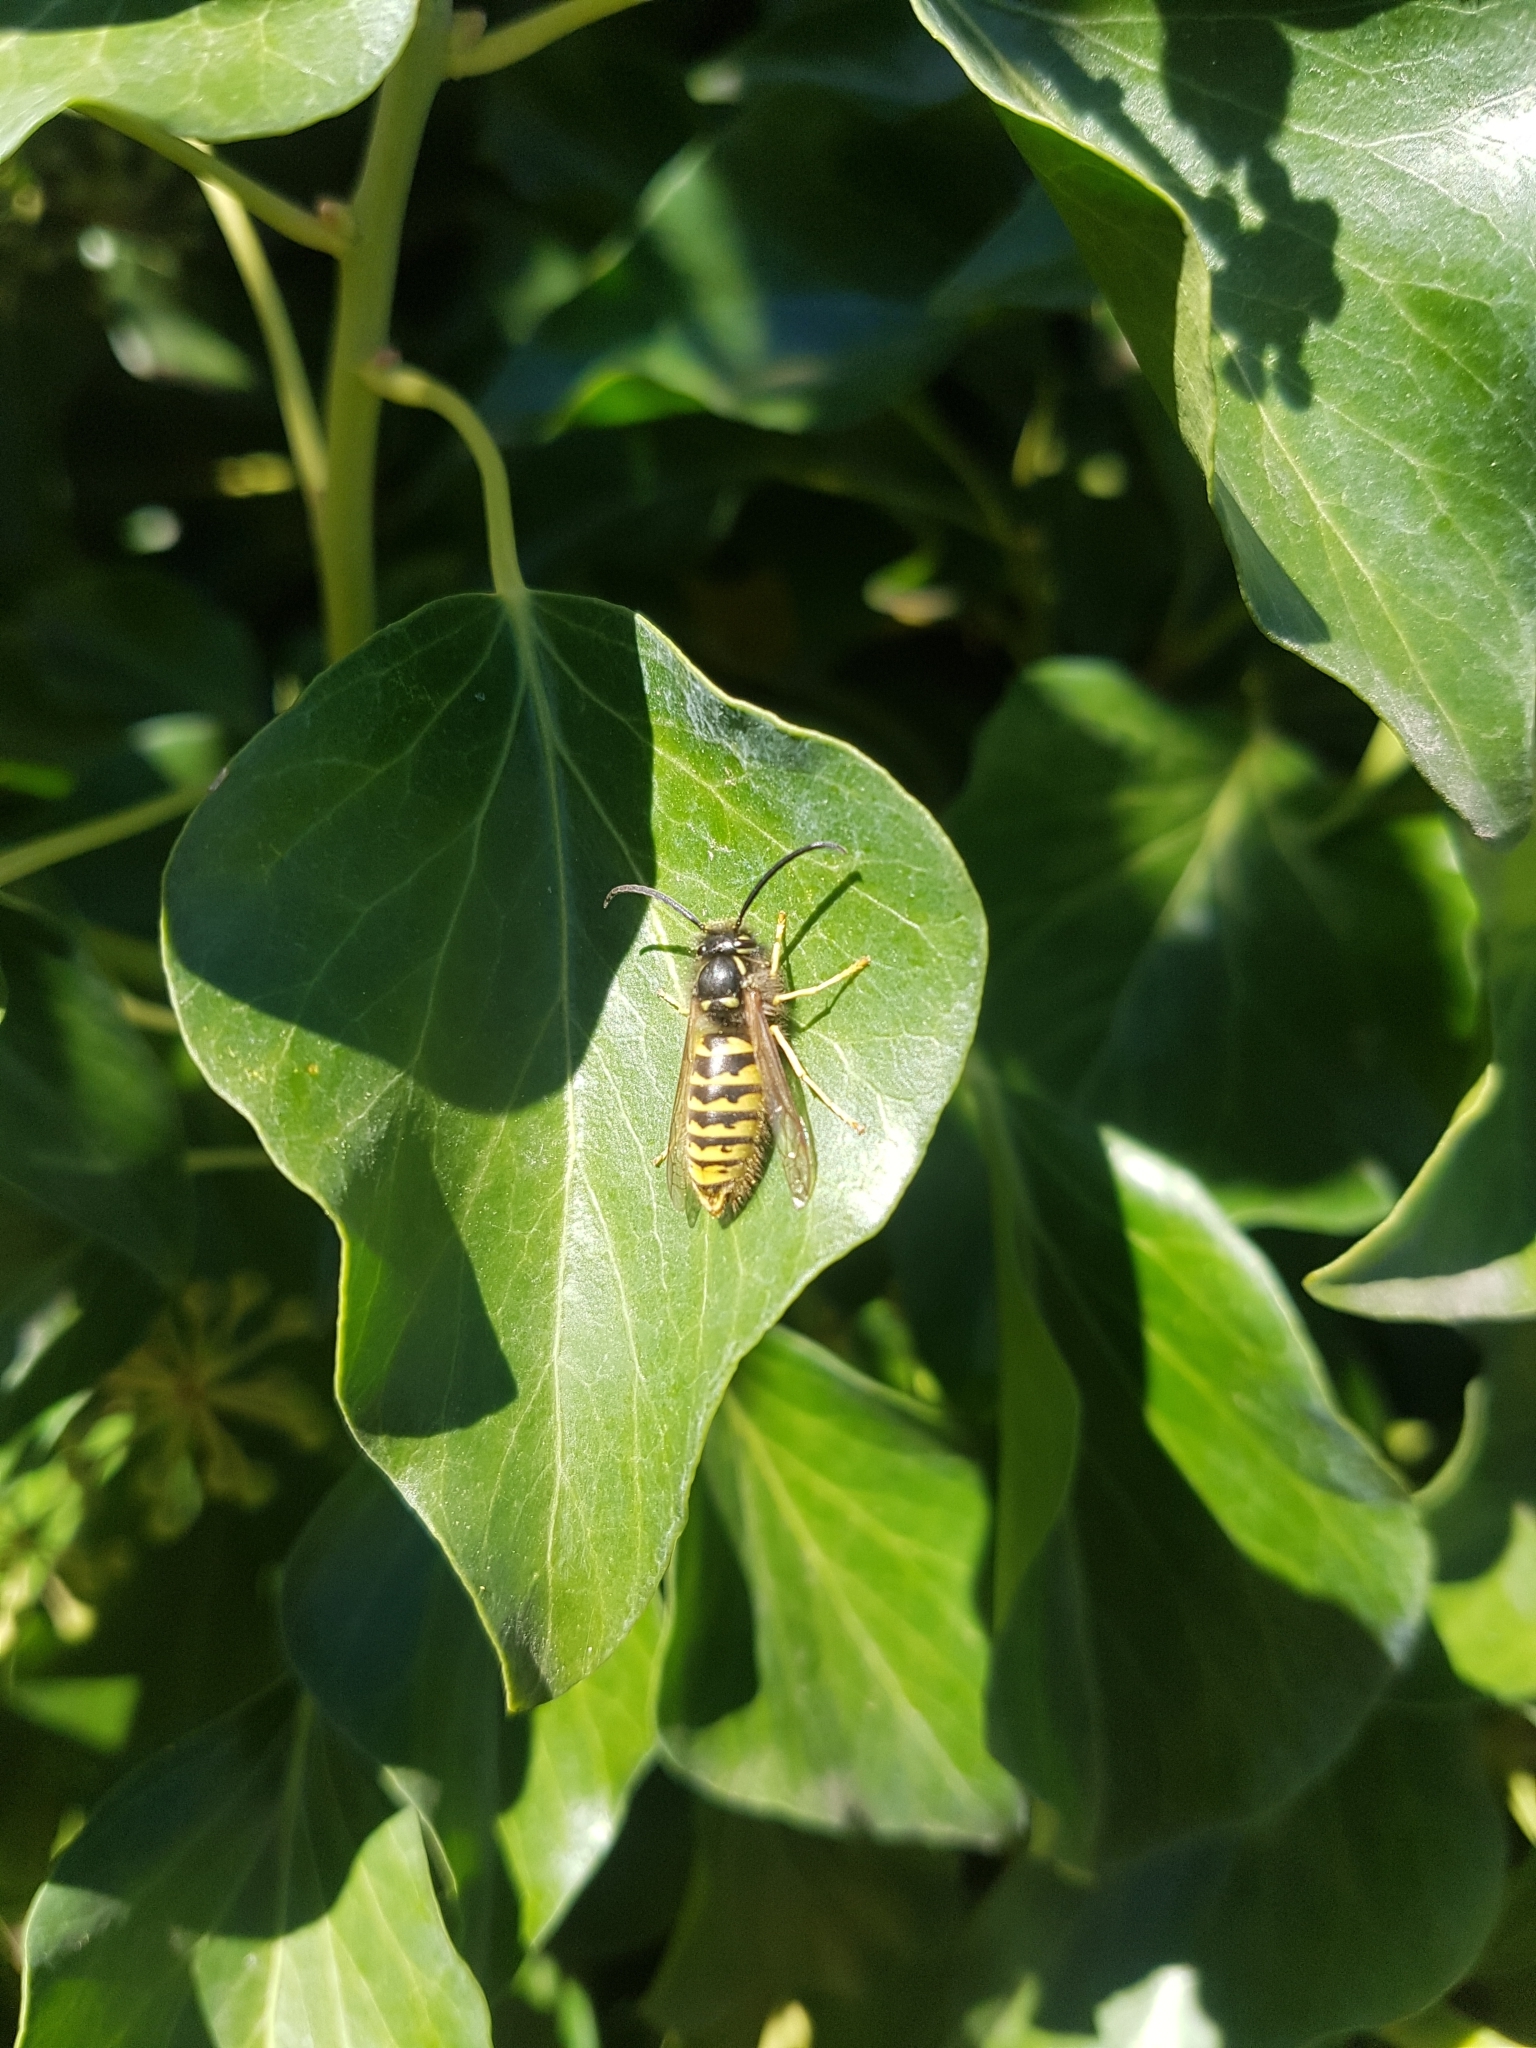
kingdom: Animalia
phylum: Arthropoda
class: Insecta
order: Hymenoptera
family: Vespidae
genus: Vespula
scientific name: Vespula vulgaris
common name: Common wasp
